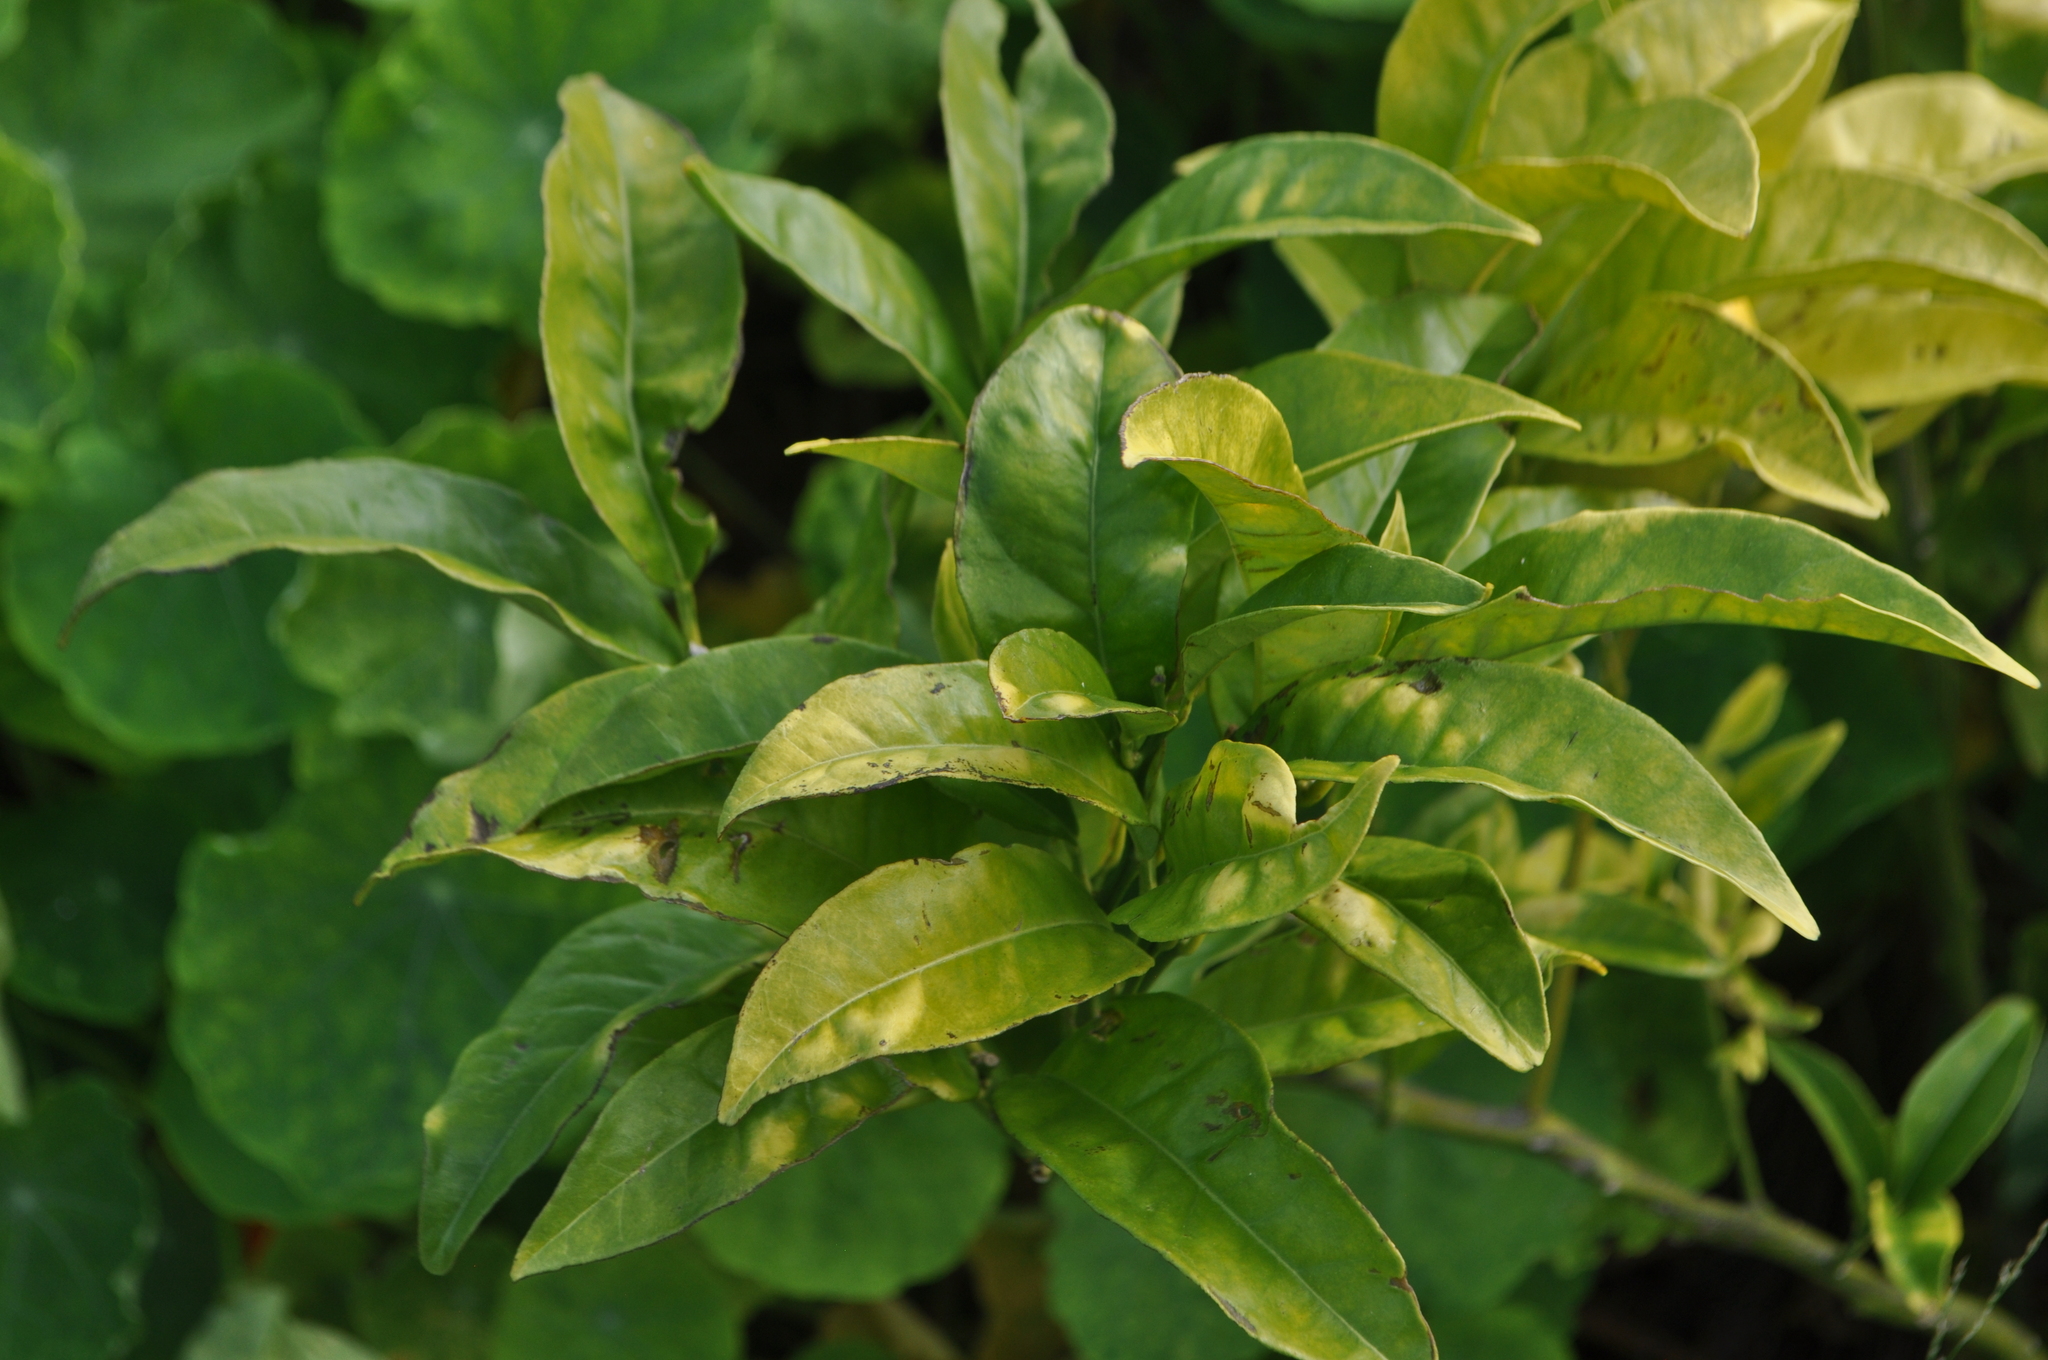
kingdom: Plantae
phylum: Tracheophyta
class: Magnoliopsida
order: Sapindales
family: Rutaceae
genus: Citrus
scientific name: Citrus limon
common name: Lemon
